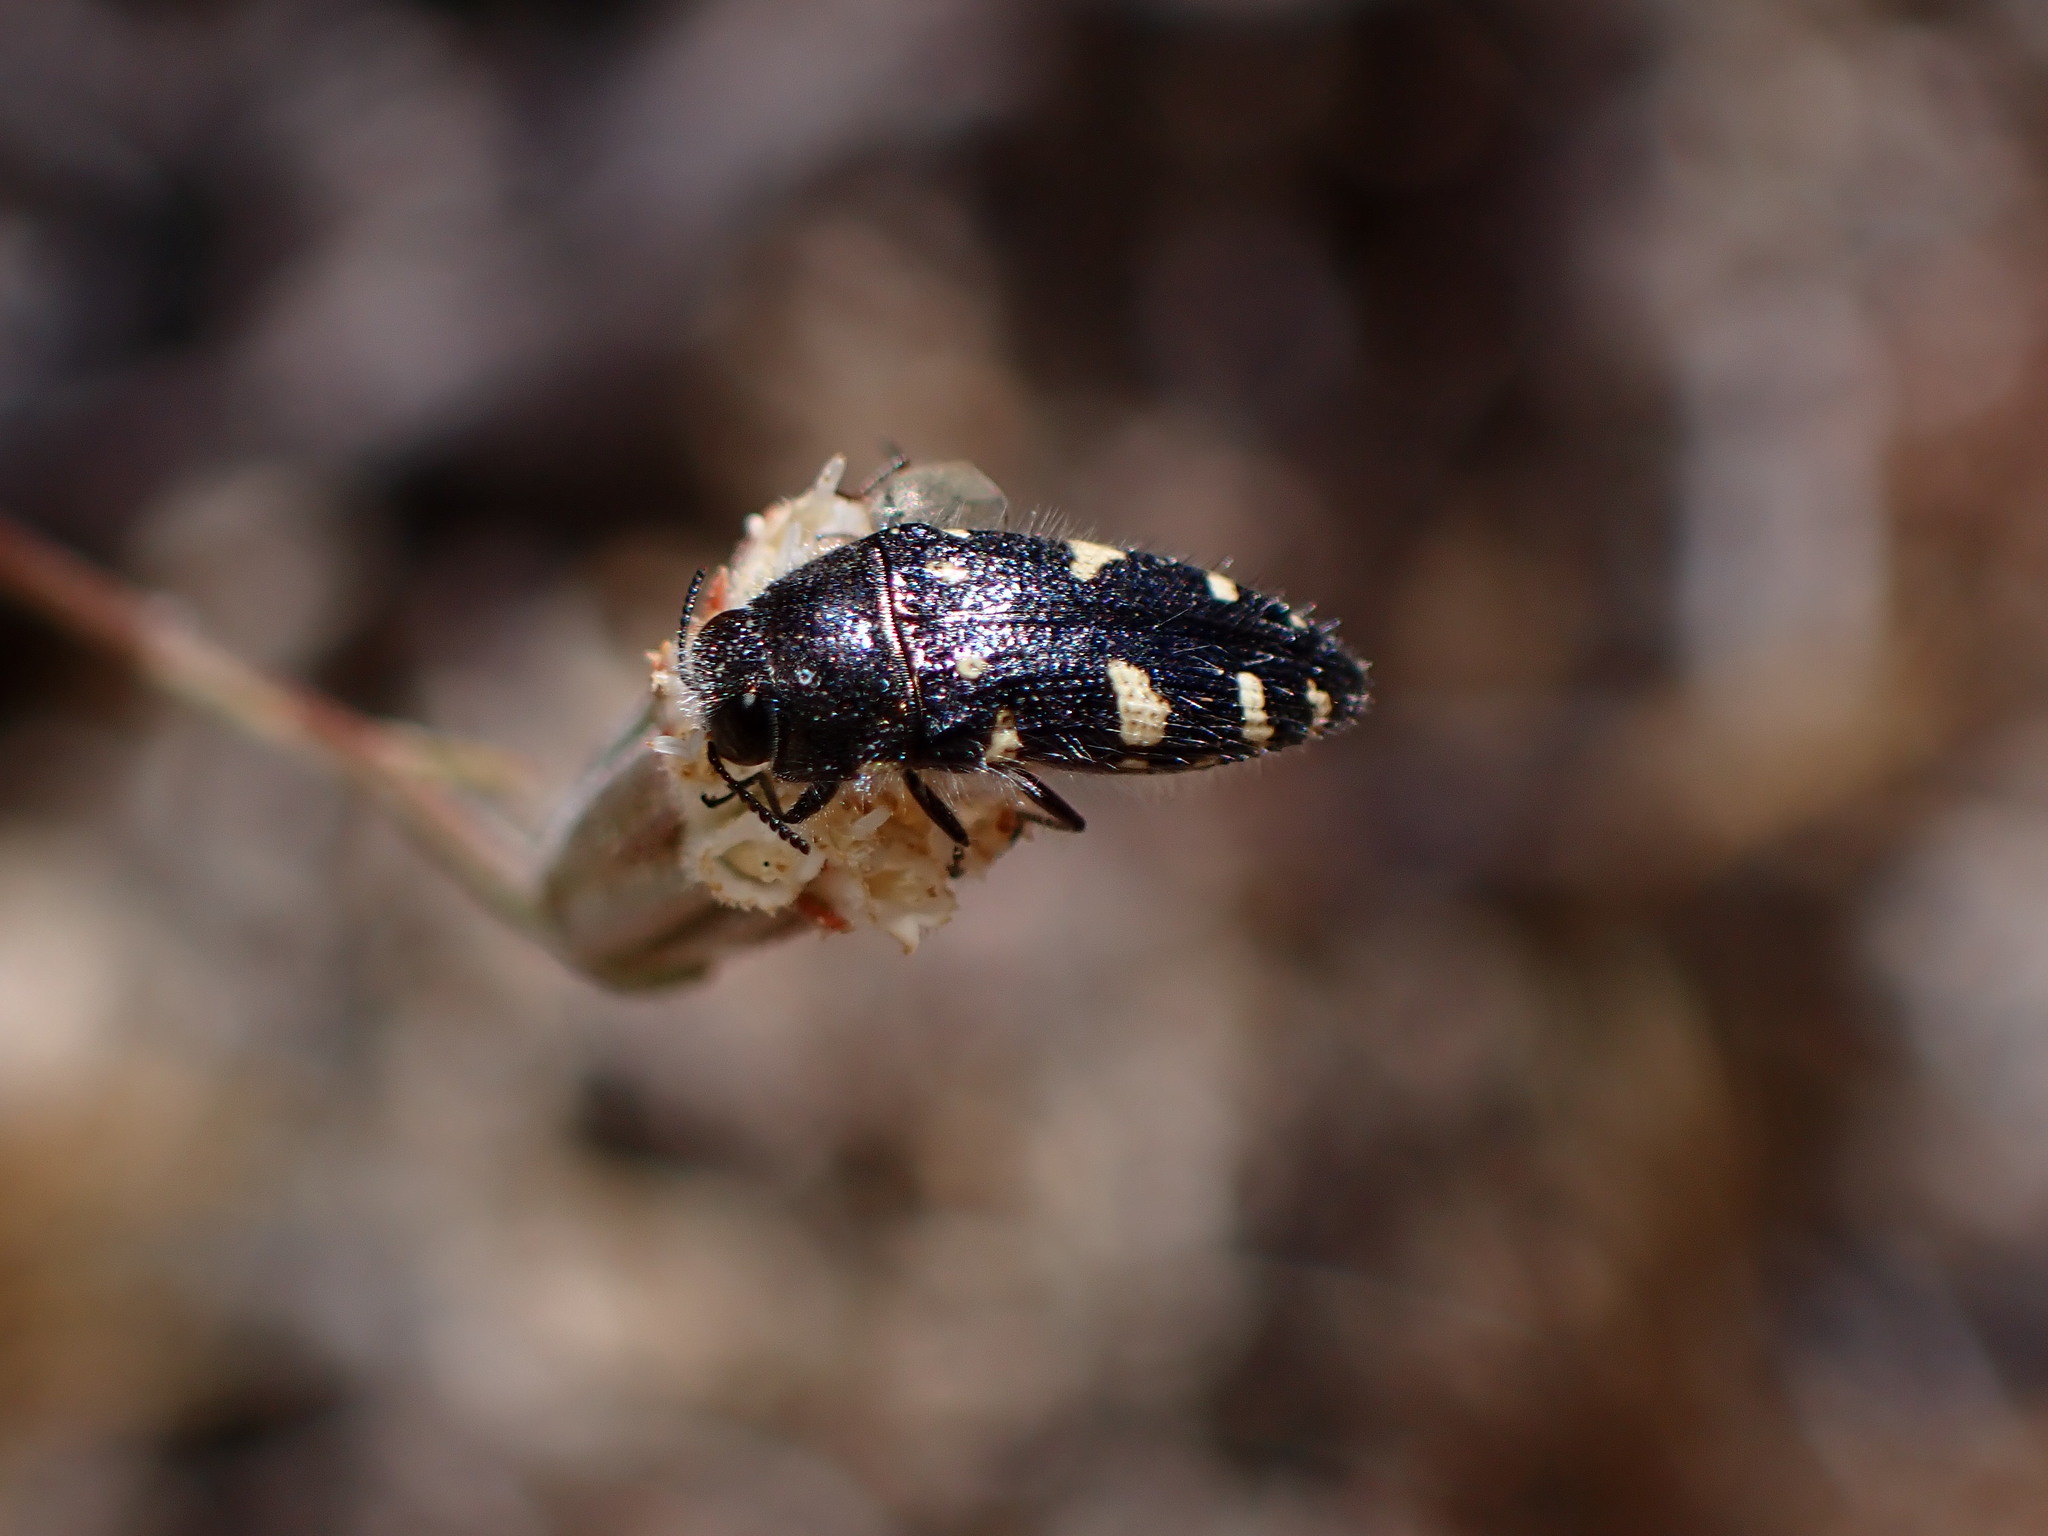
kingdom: Animalia
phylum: Arthropoda
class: Insecta
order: Coleoptera
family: Buprestidae
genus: Acmaeodera
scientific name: Acmaeodera vernalis
